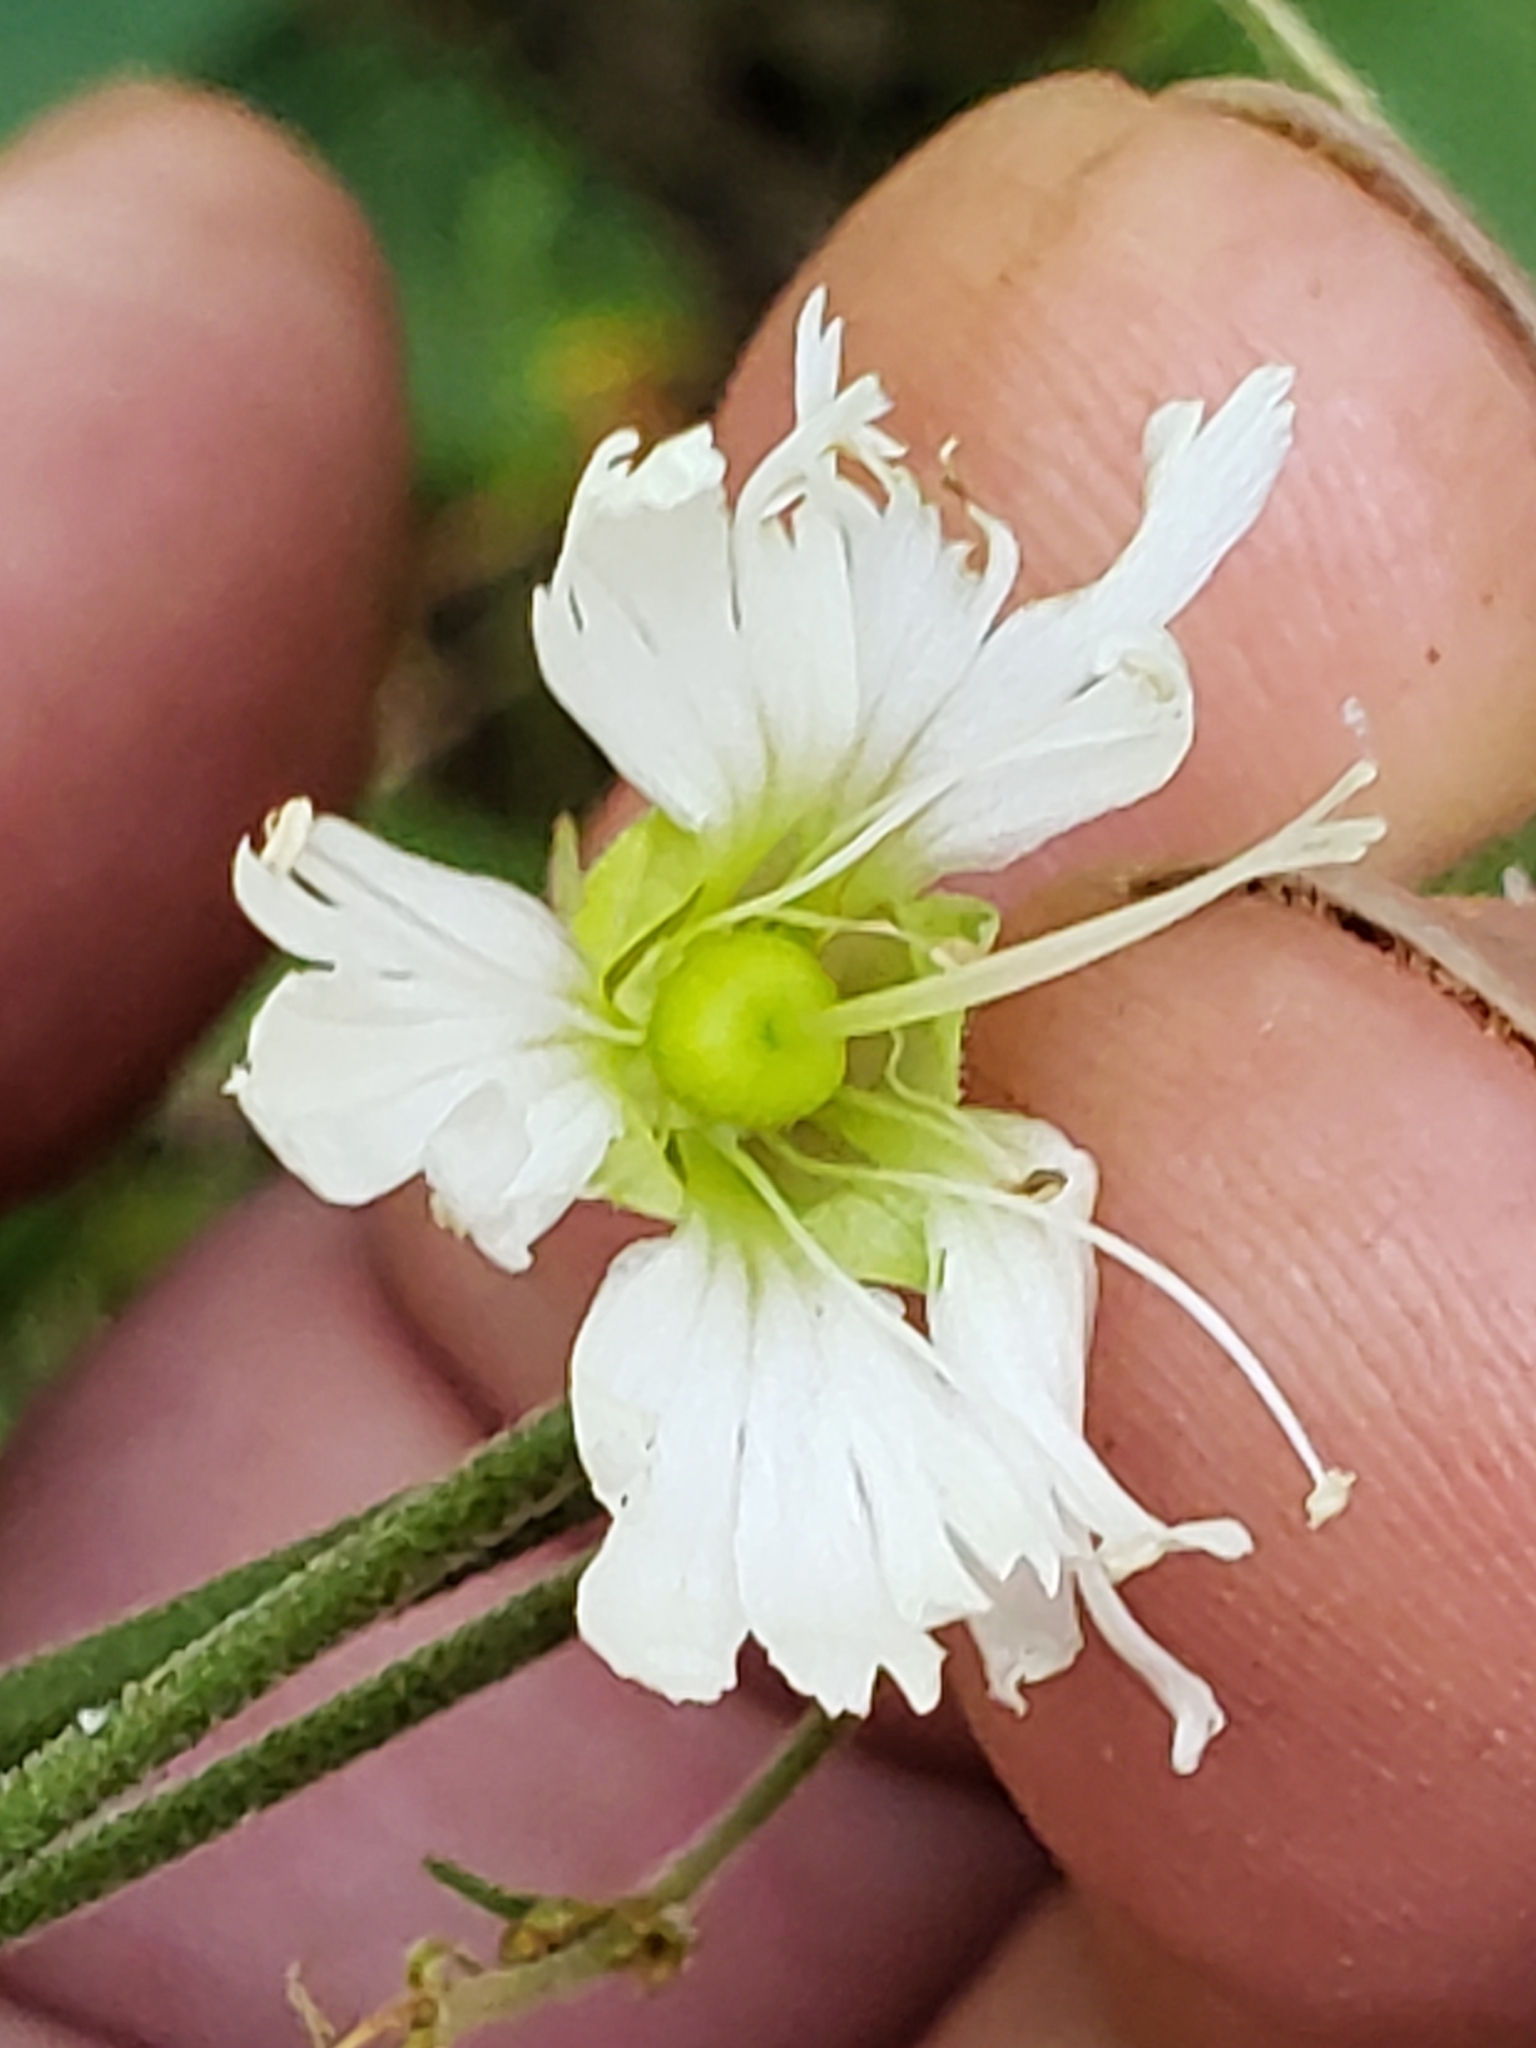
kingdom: Animalia
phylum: Arthropoda
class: Insecta
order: Diptera
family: Agromyzidae
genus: Amauromyza
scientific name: Amauromyza flavifrons
